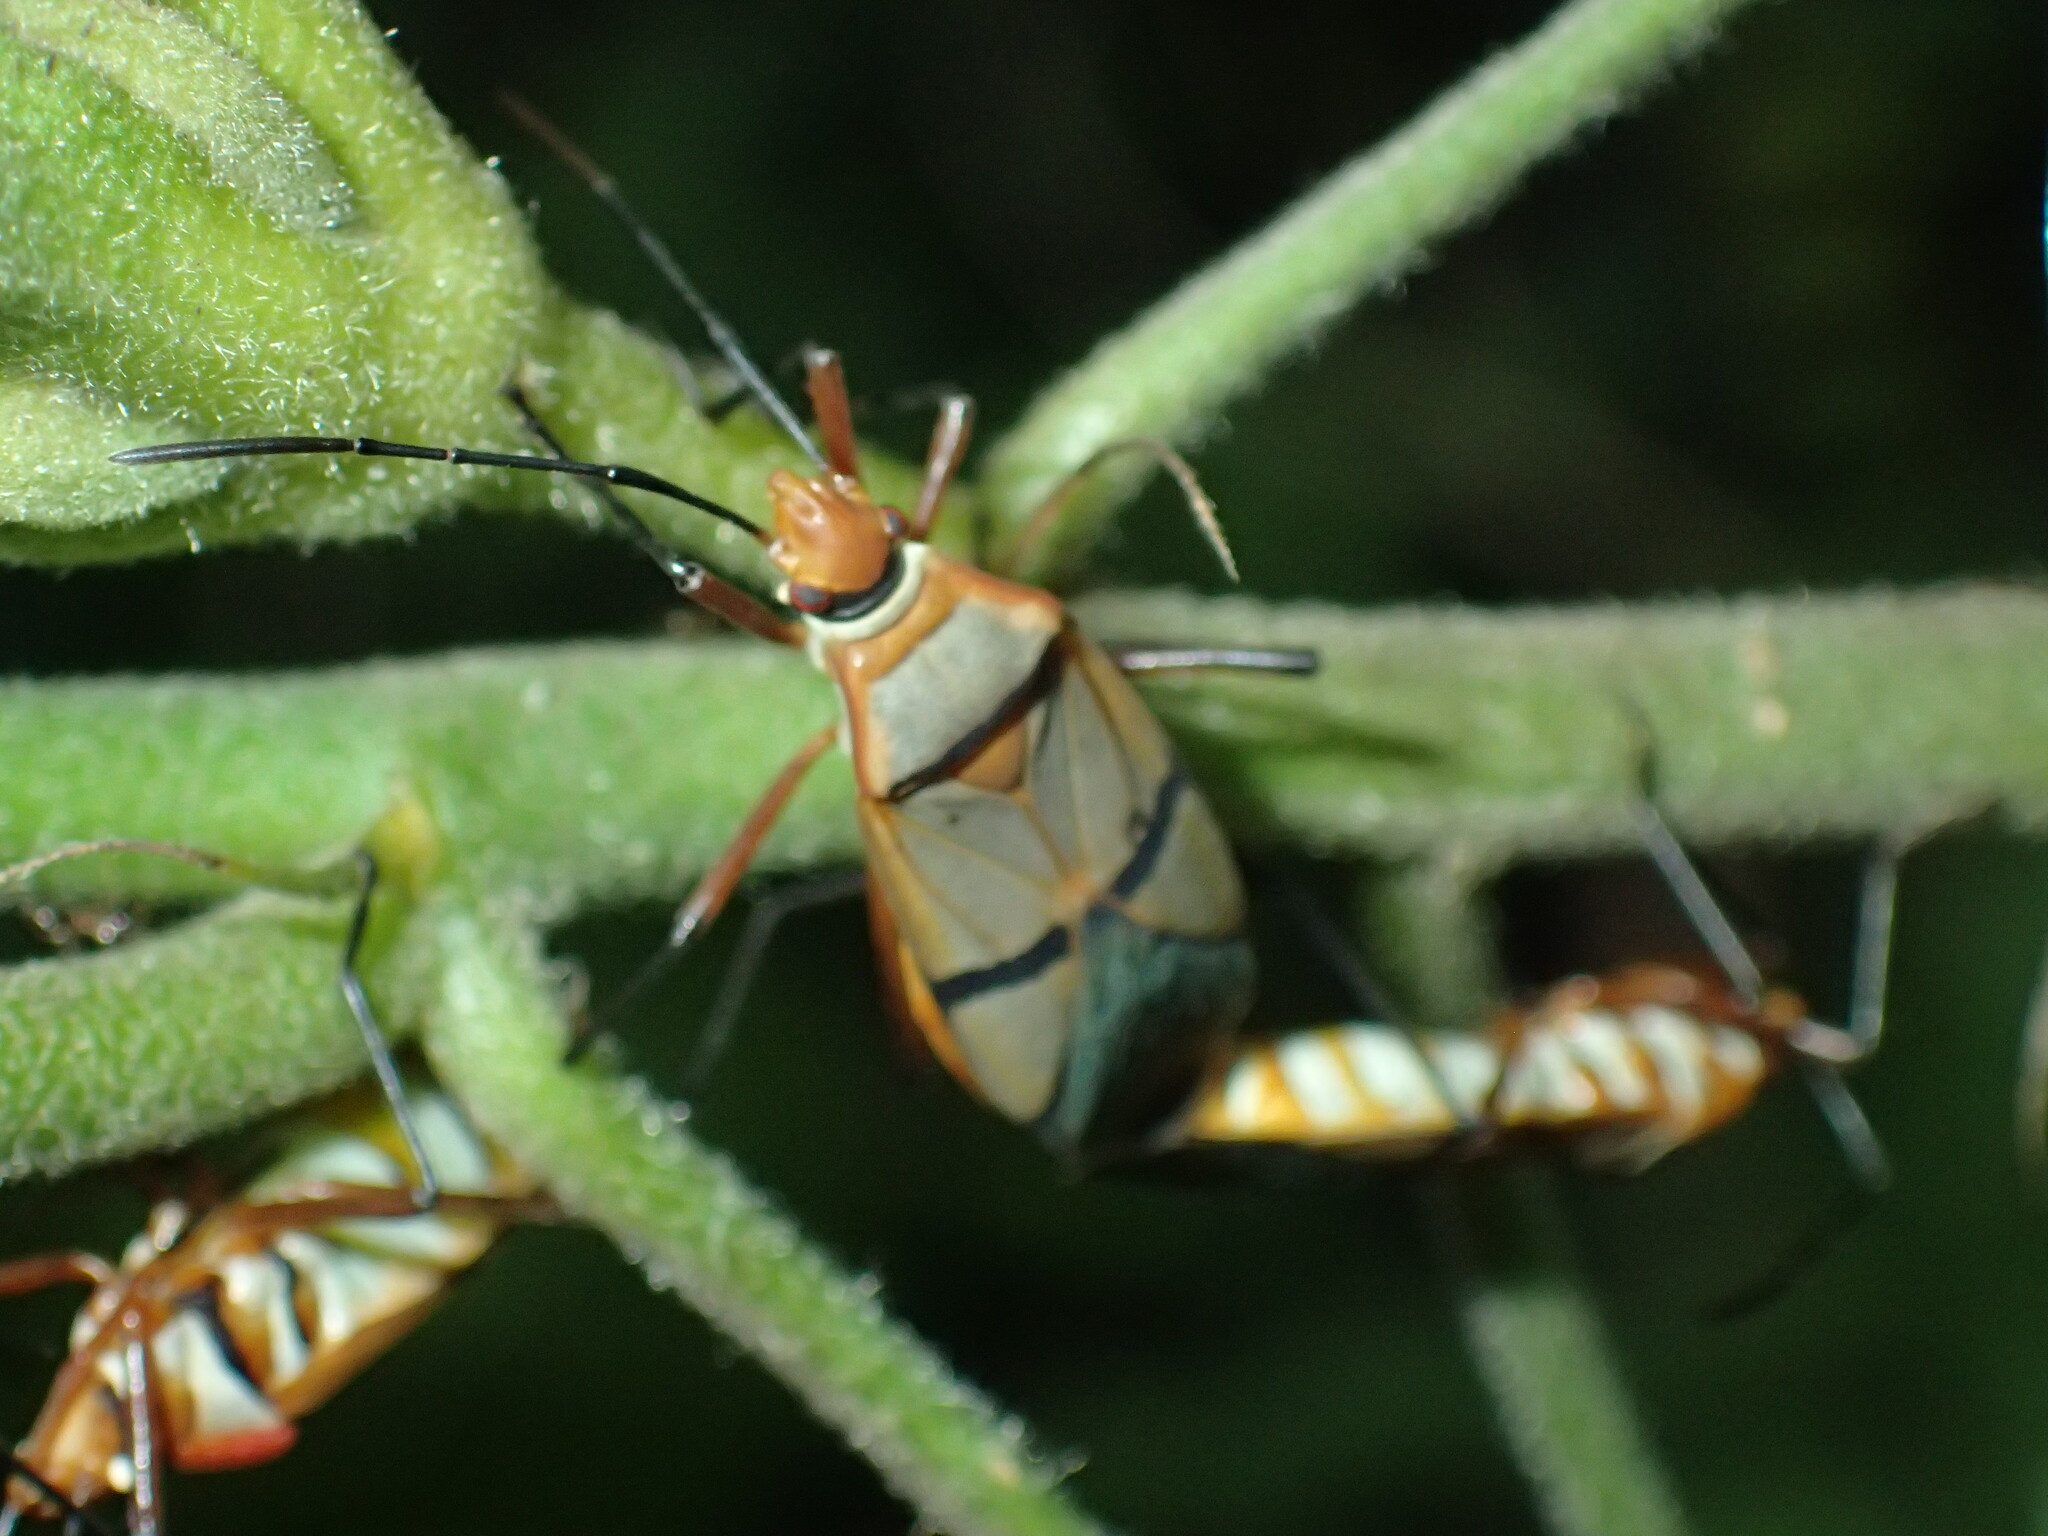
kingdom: Animalia
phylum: Arthropoda
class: Insecta
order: Hemiptera
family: Pyrrhocoridae
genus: Dysdercus
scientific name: Dysdercus
